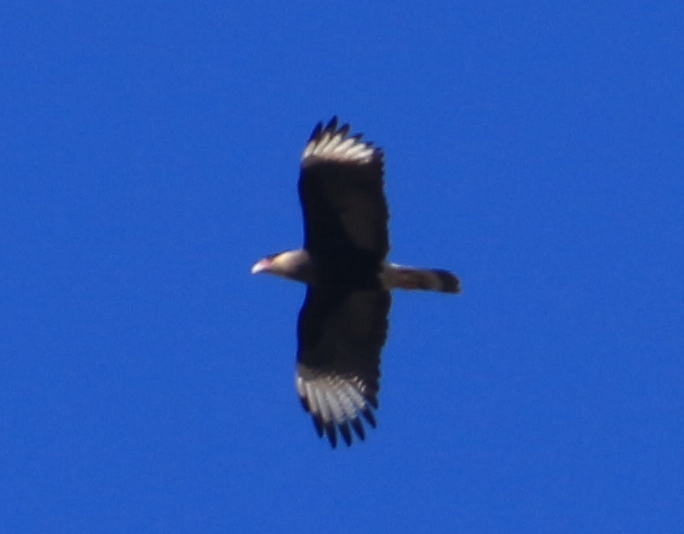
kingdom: Animalia
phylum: Chordata
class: Aves
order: Falconiformes
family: Falconidae
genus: Caracara
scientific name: Caracara plancus
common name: Southern caracara
